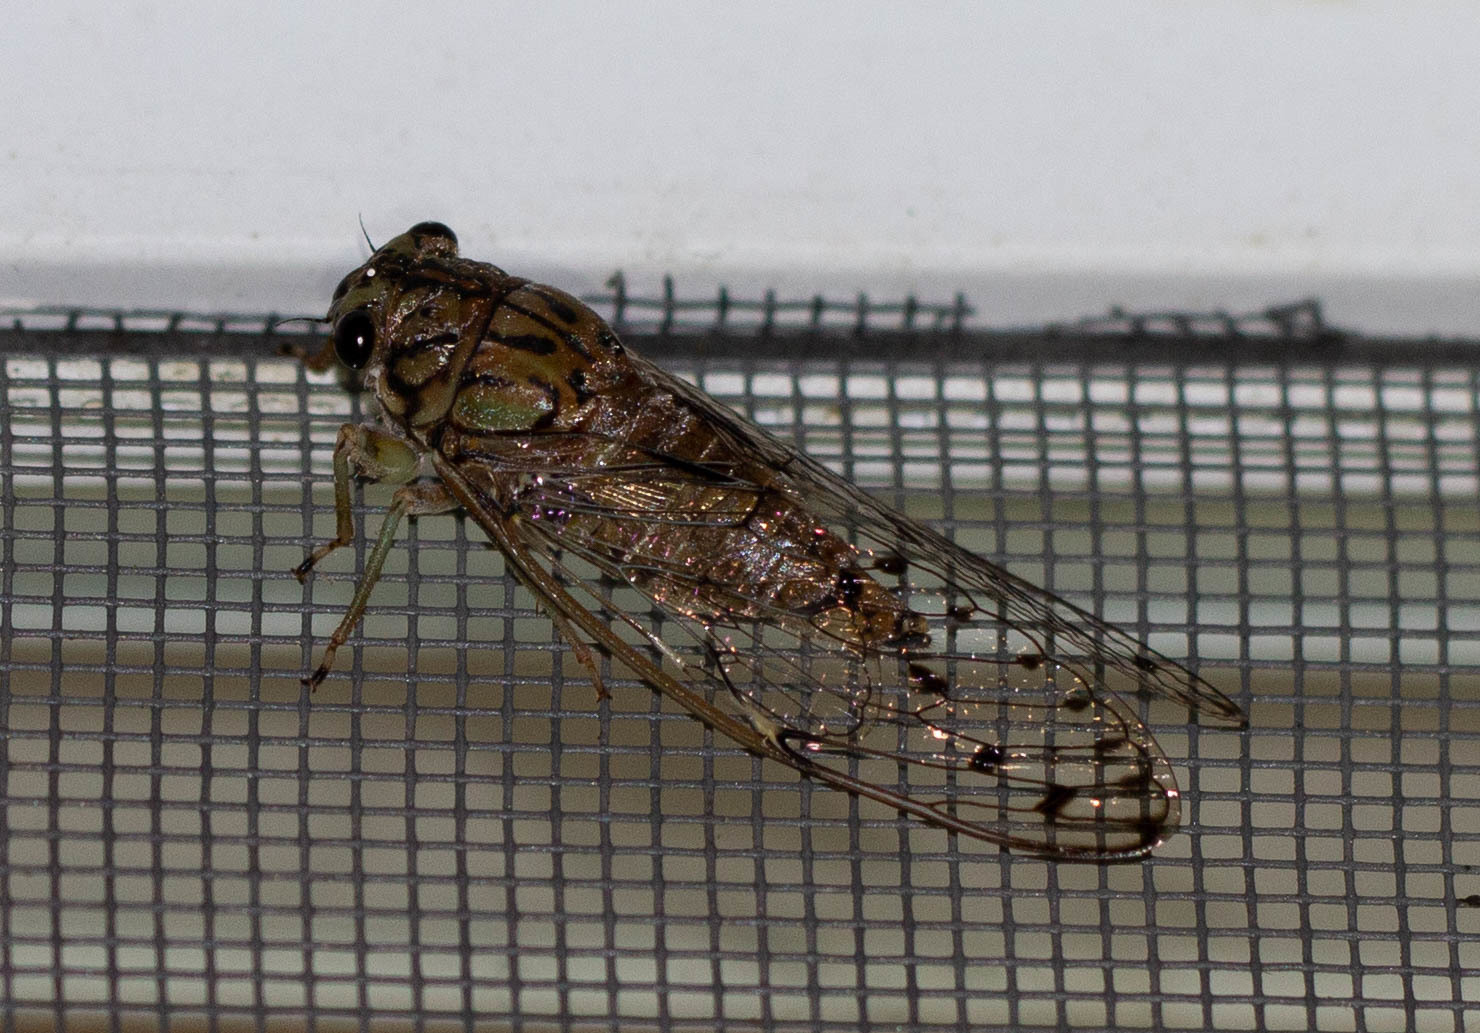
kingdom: Animalia
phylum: Arthropoda
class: Insecta
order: Hemiptera
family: Cicadidae
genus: Neocicada
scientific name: Neocicada hieroglyphica
